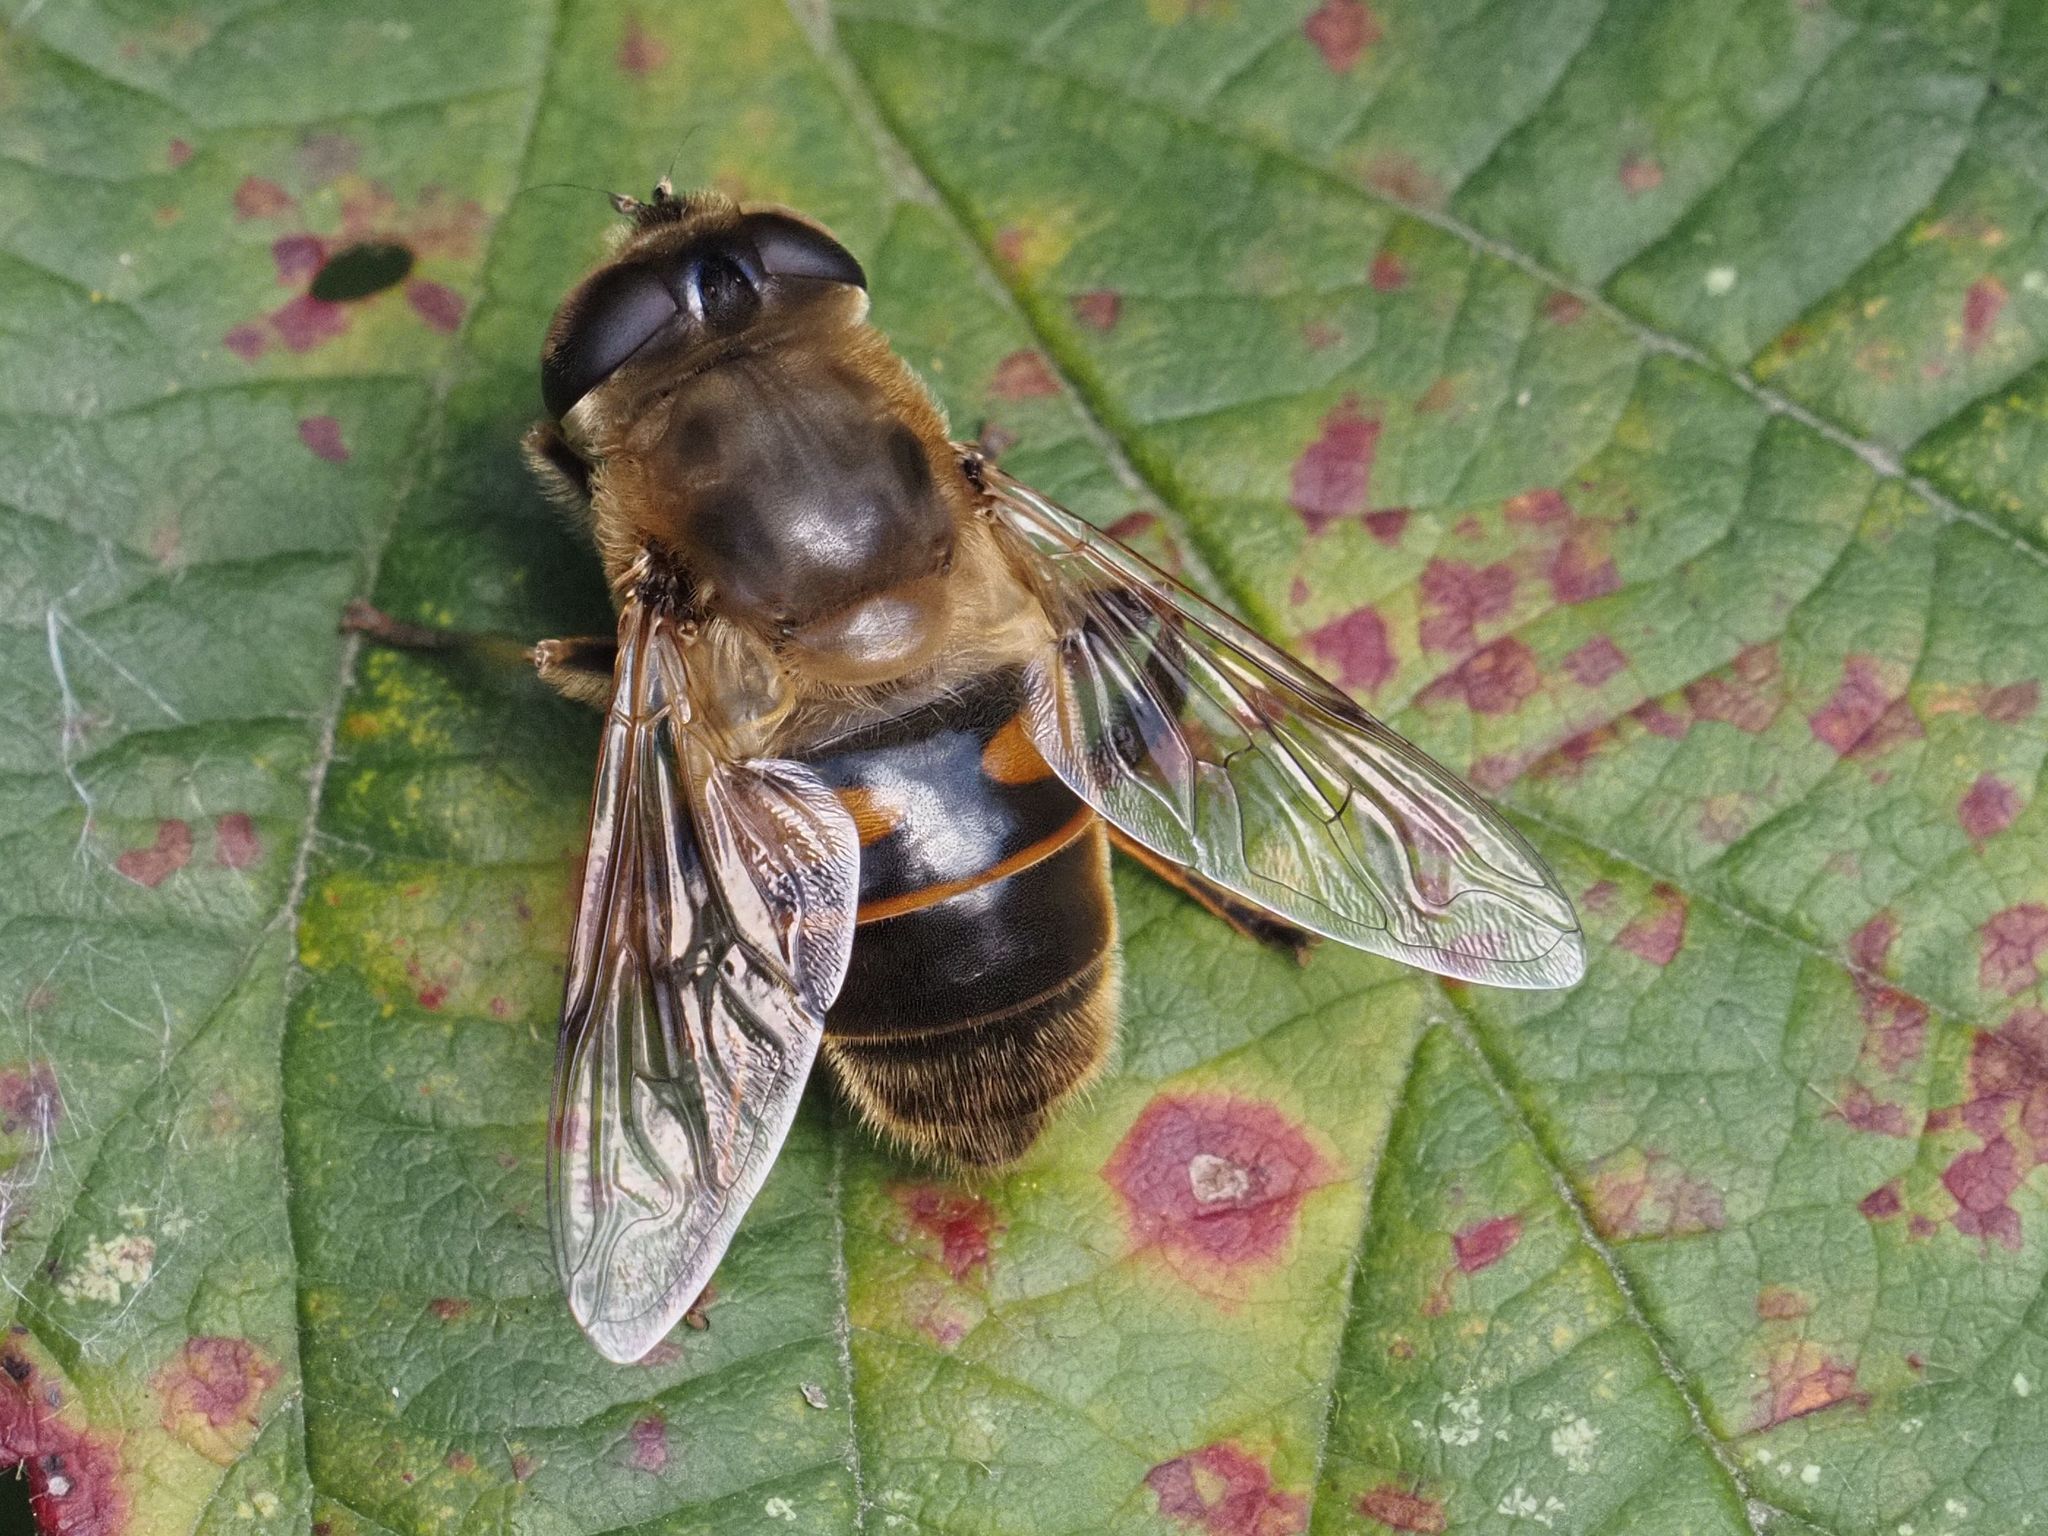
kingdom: Animalia
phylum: Arthropoda
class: Insecta
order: Diptera
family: Syrphidae
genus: Eristalis
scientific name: Eristalis tenax
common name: Drone fly
